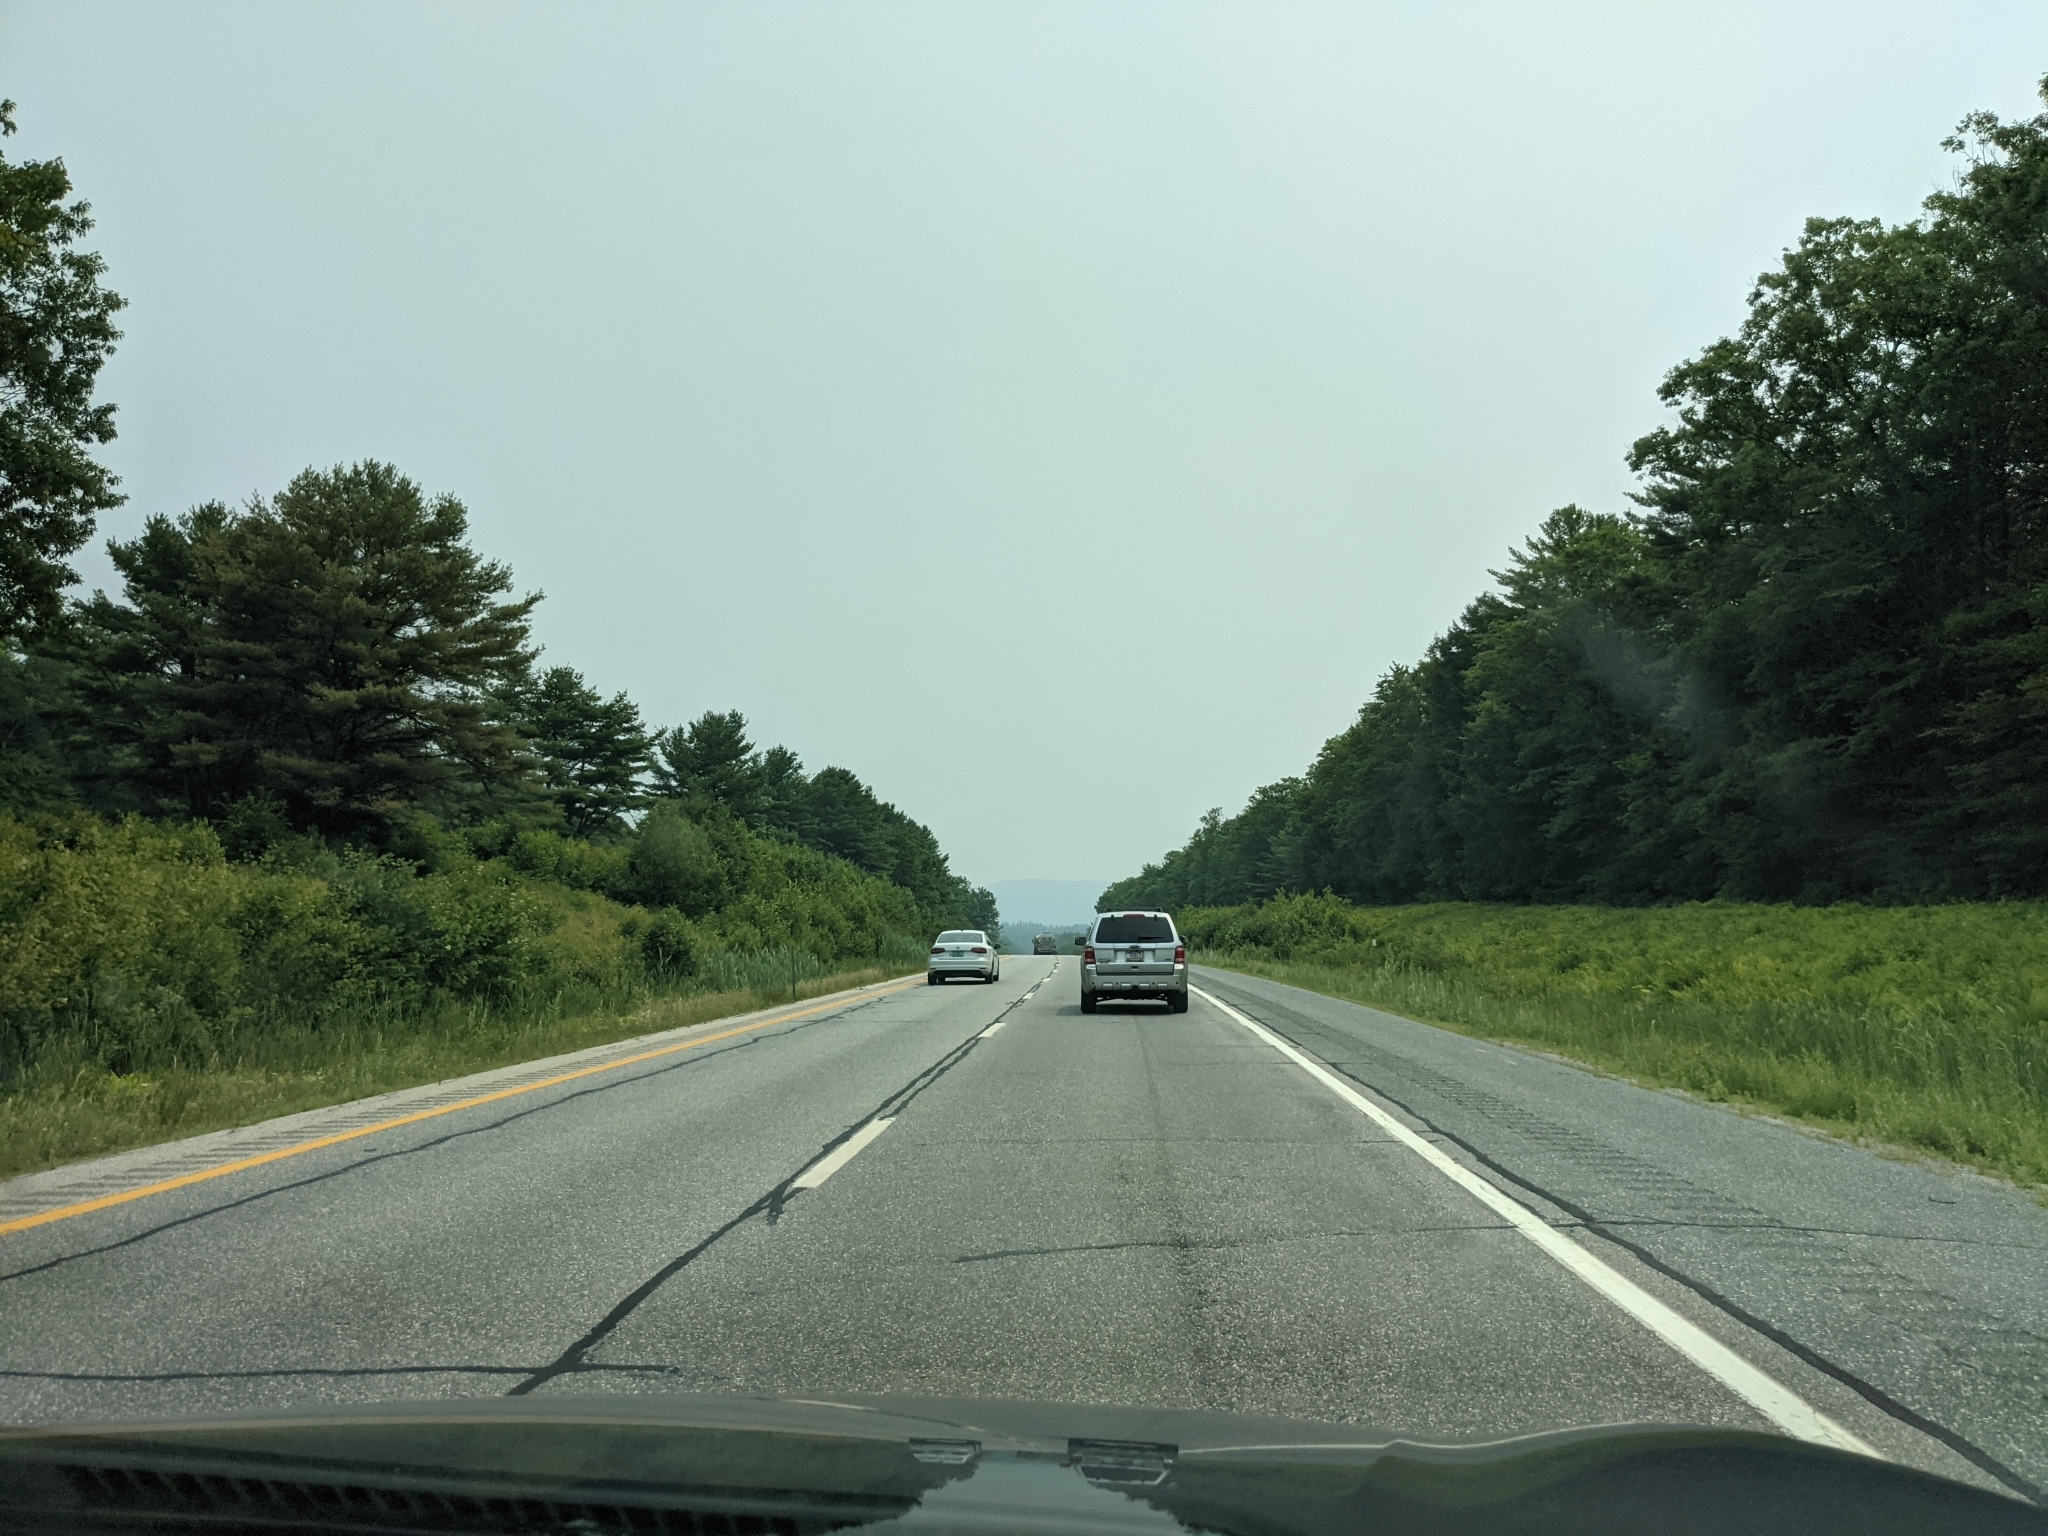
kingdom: Plantae
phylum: Tracheophyta
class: Pinopsida
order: Pinales
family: Pinaceae
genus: Pinus
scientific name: Pinus strobus
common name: Weymouth pine
